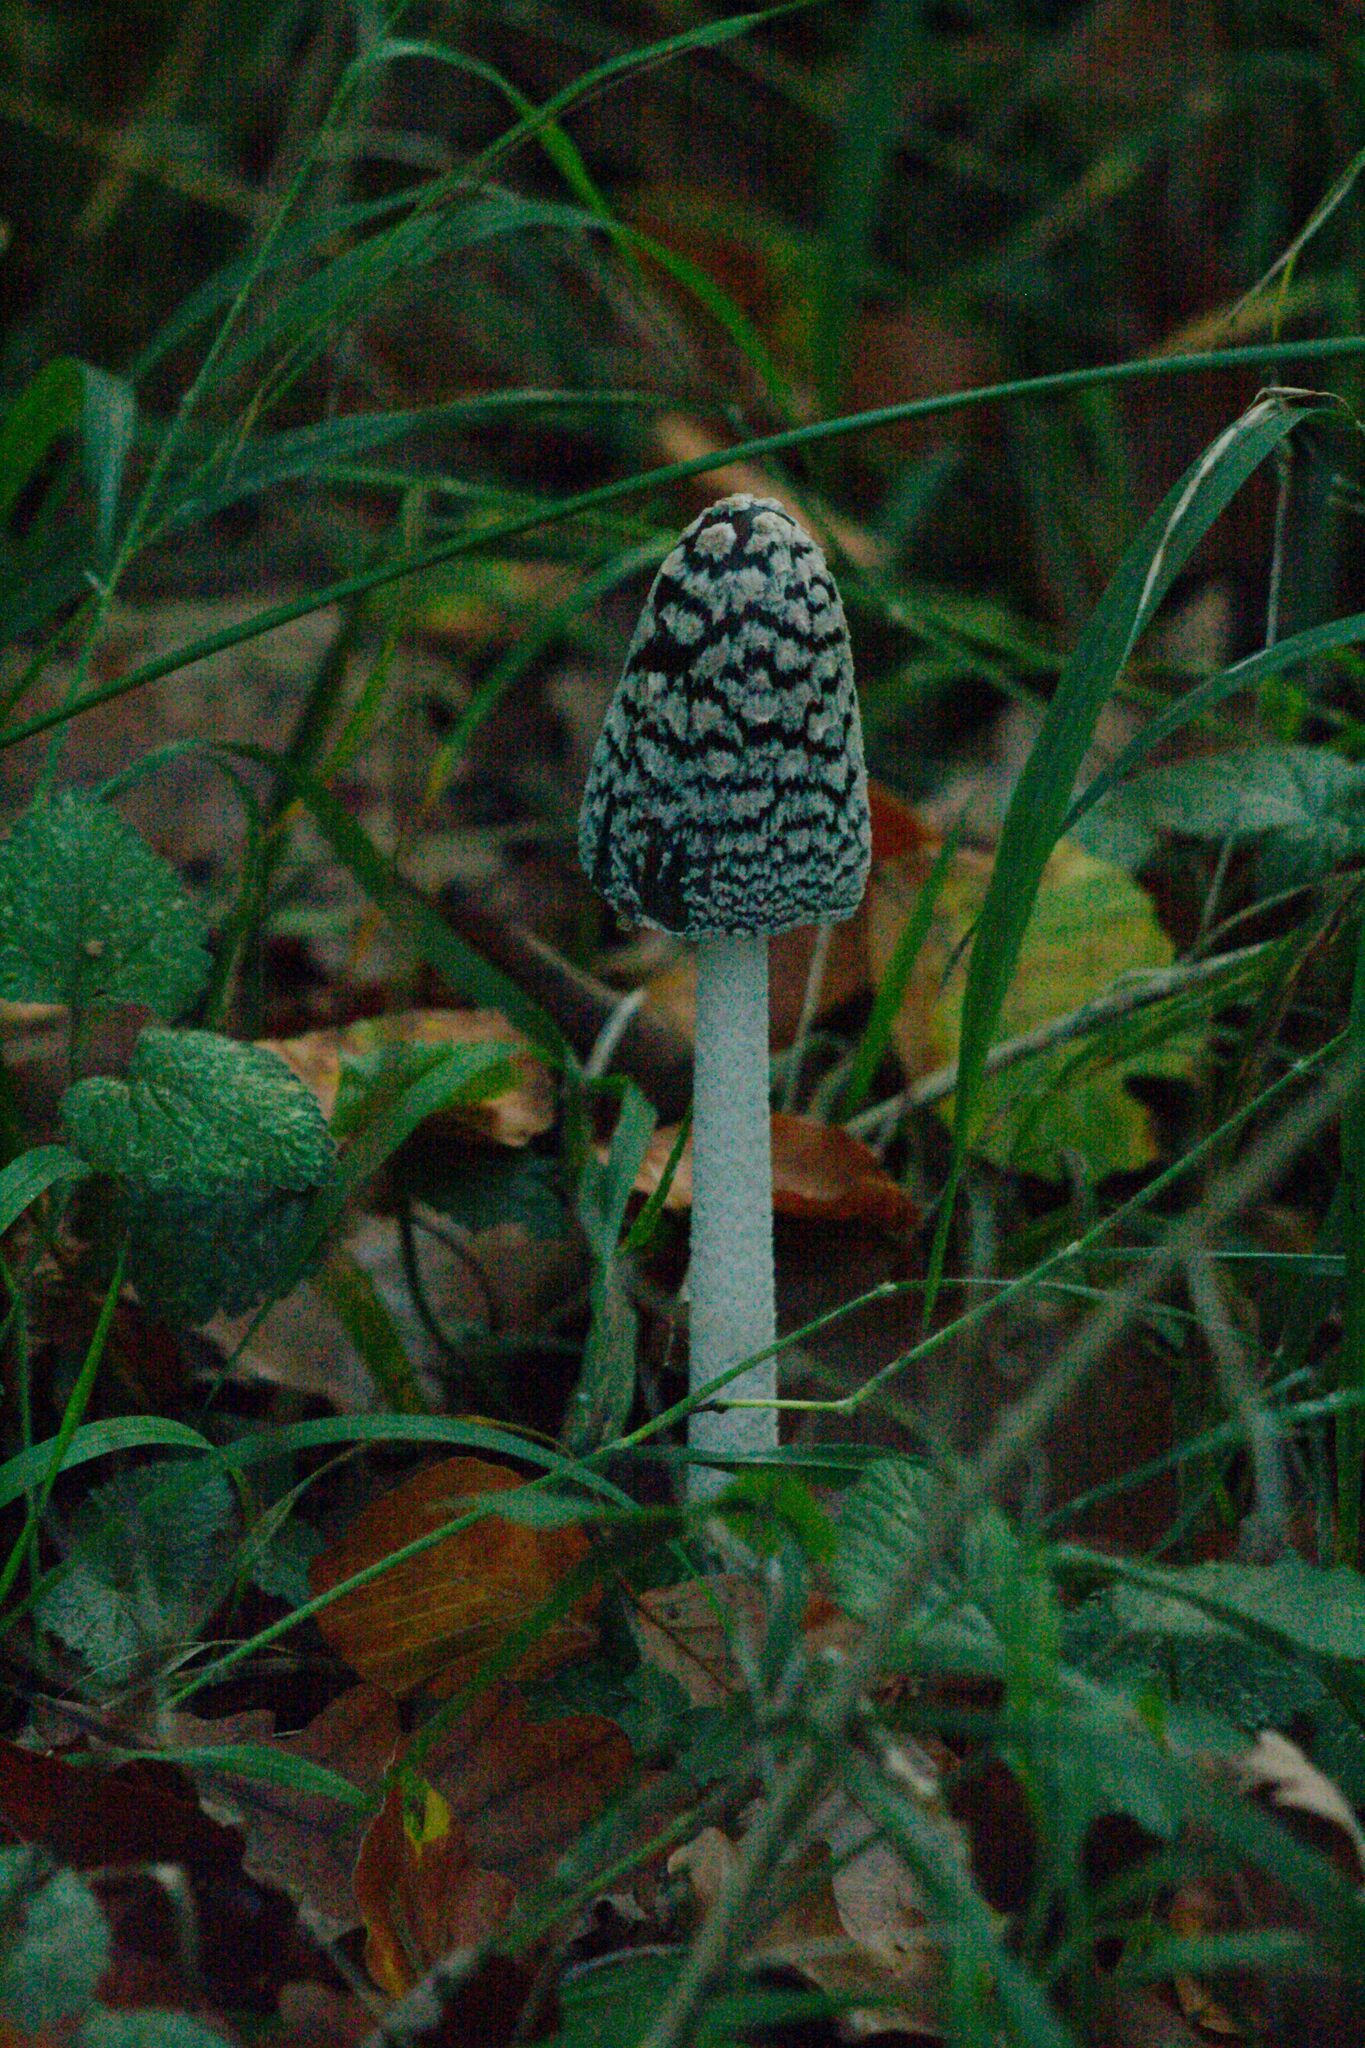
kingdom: Fungi
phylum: Basidiomycota
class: Agaricomycetes
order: Agaricales
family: Psathyrellaceae
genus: Coprinopsis
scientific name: Coprinopsis picacea
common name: Magpie inkcap
